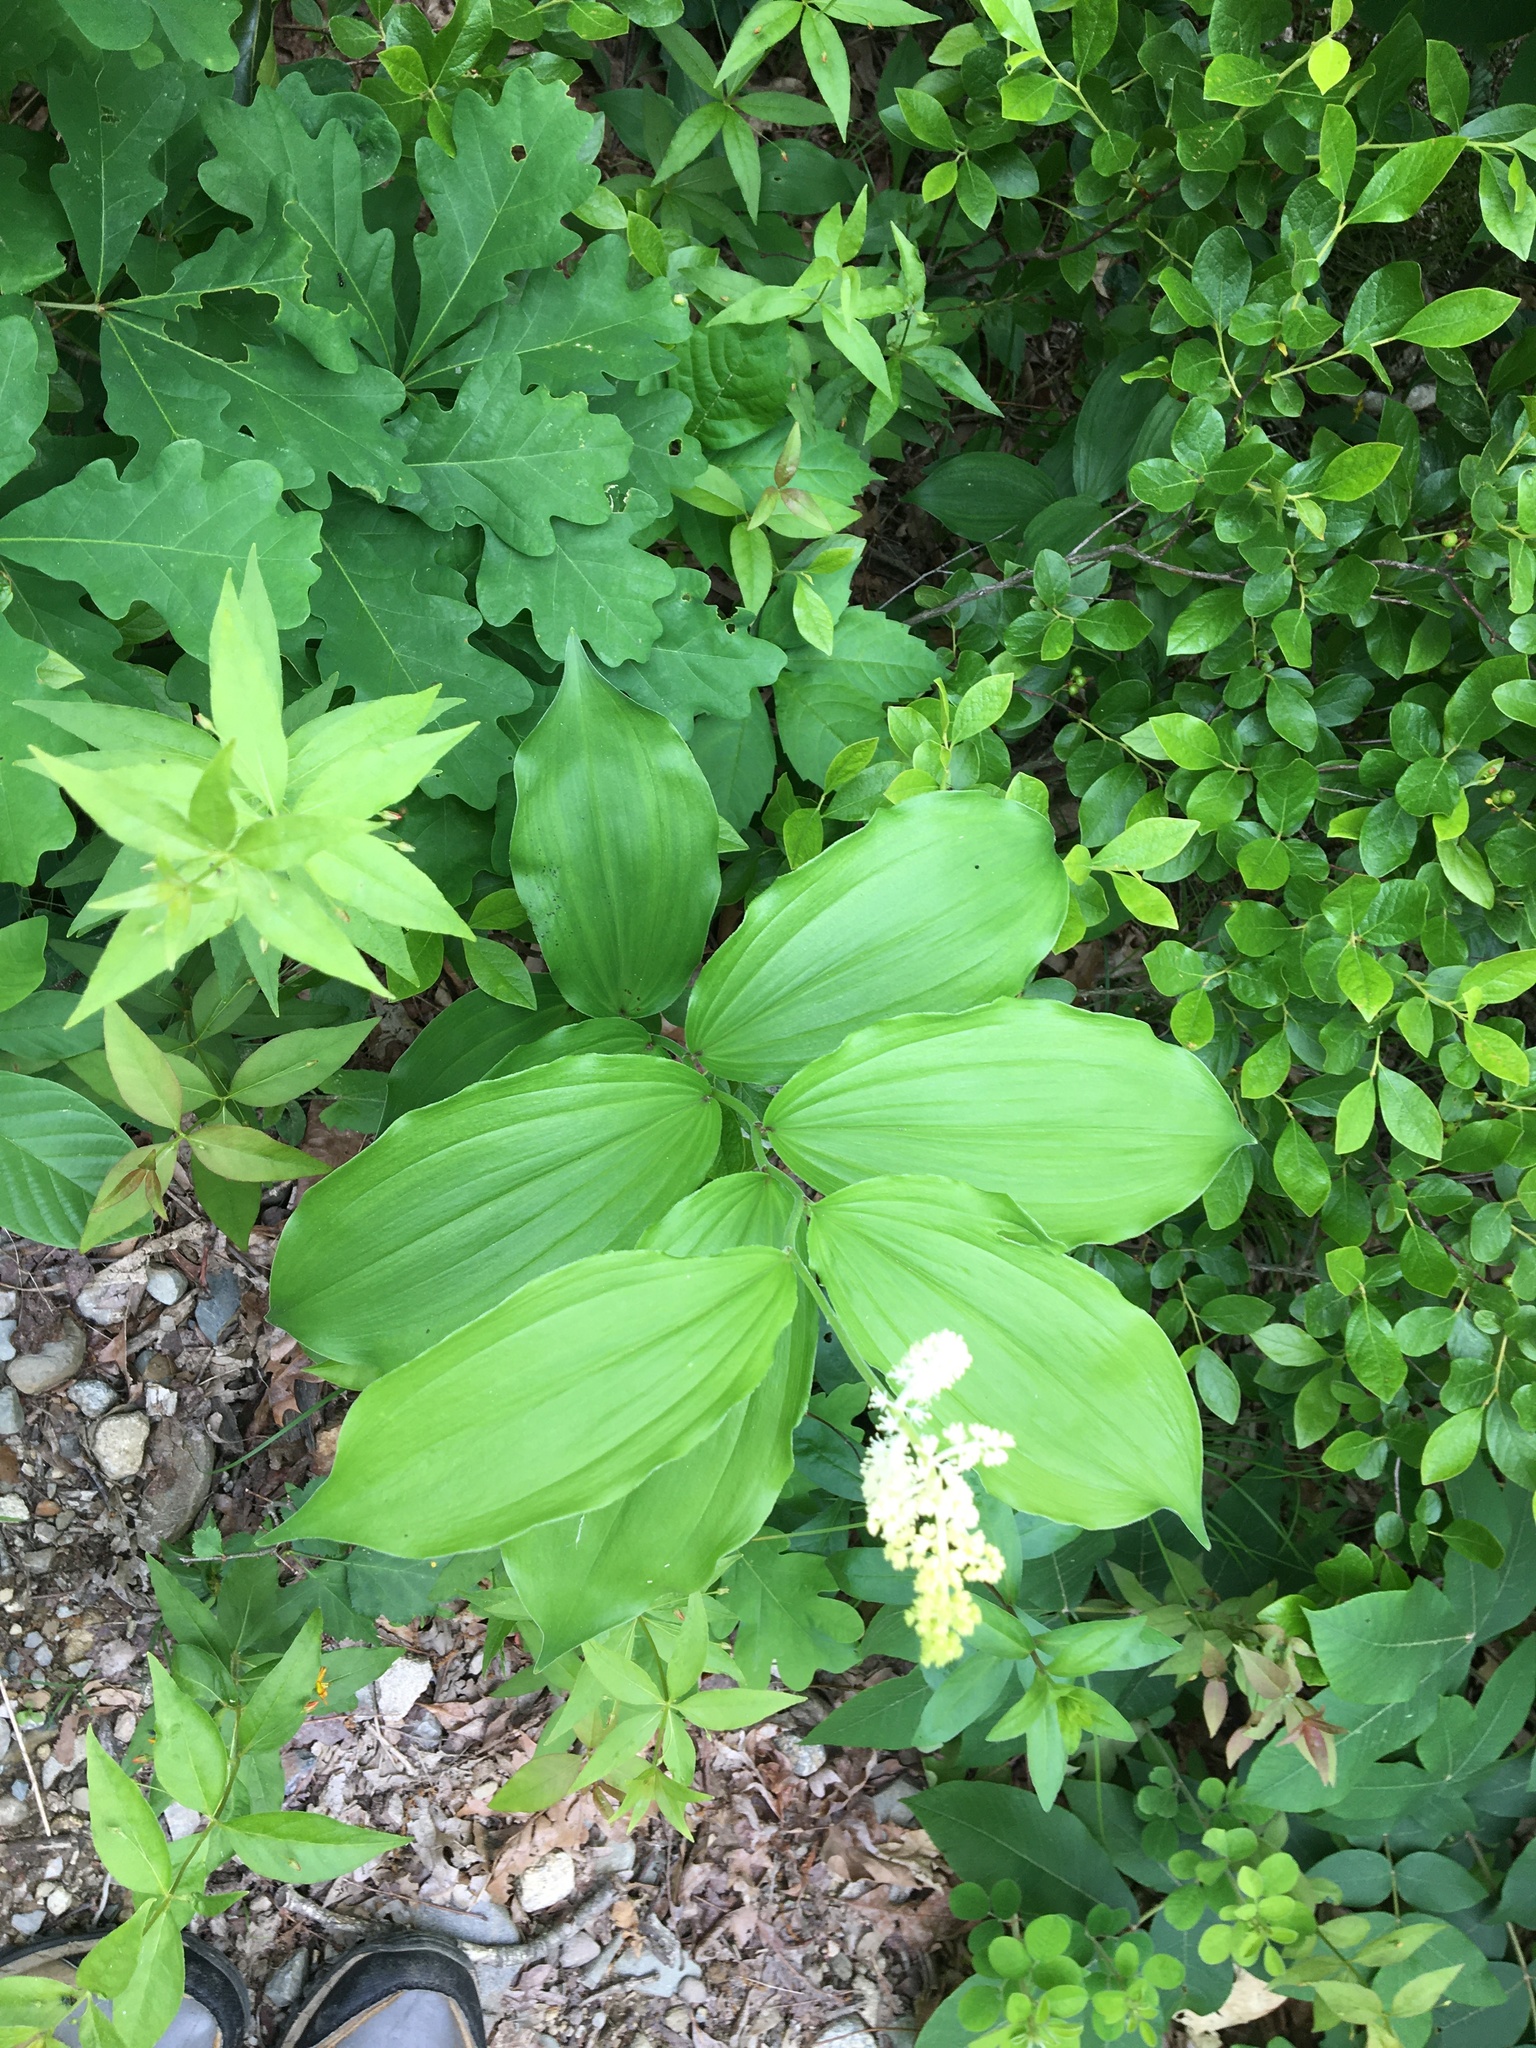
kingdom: Plantae
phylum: Tracheophyta
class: Liliopsida
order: Asparagales
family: Asparagaceae
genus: Maianthemum
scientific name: Maianthemum racemosum
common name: False spikenard
